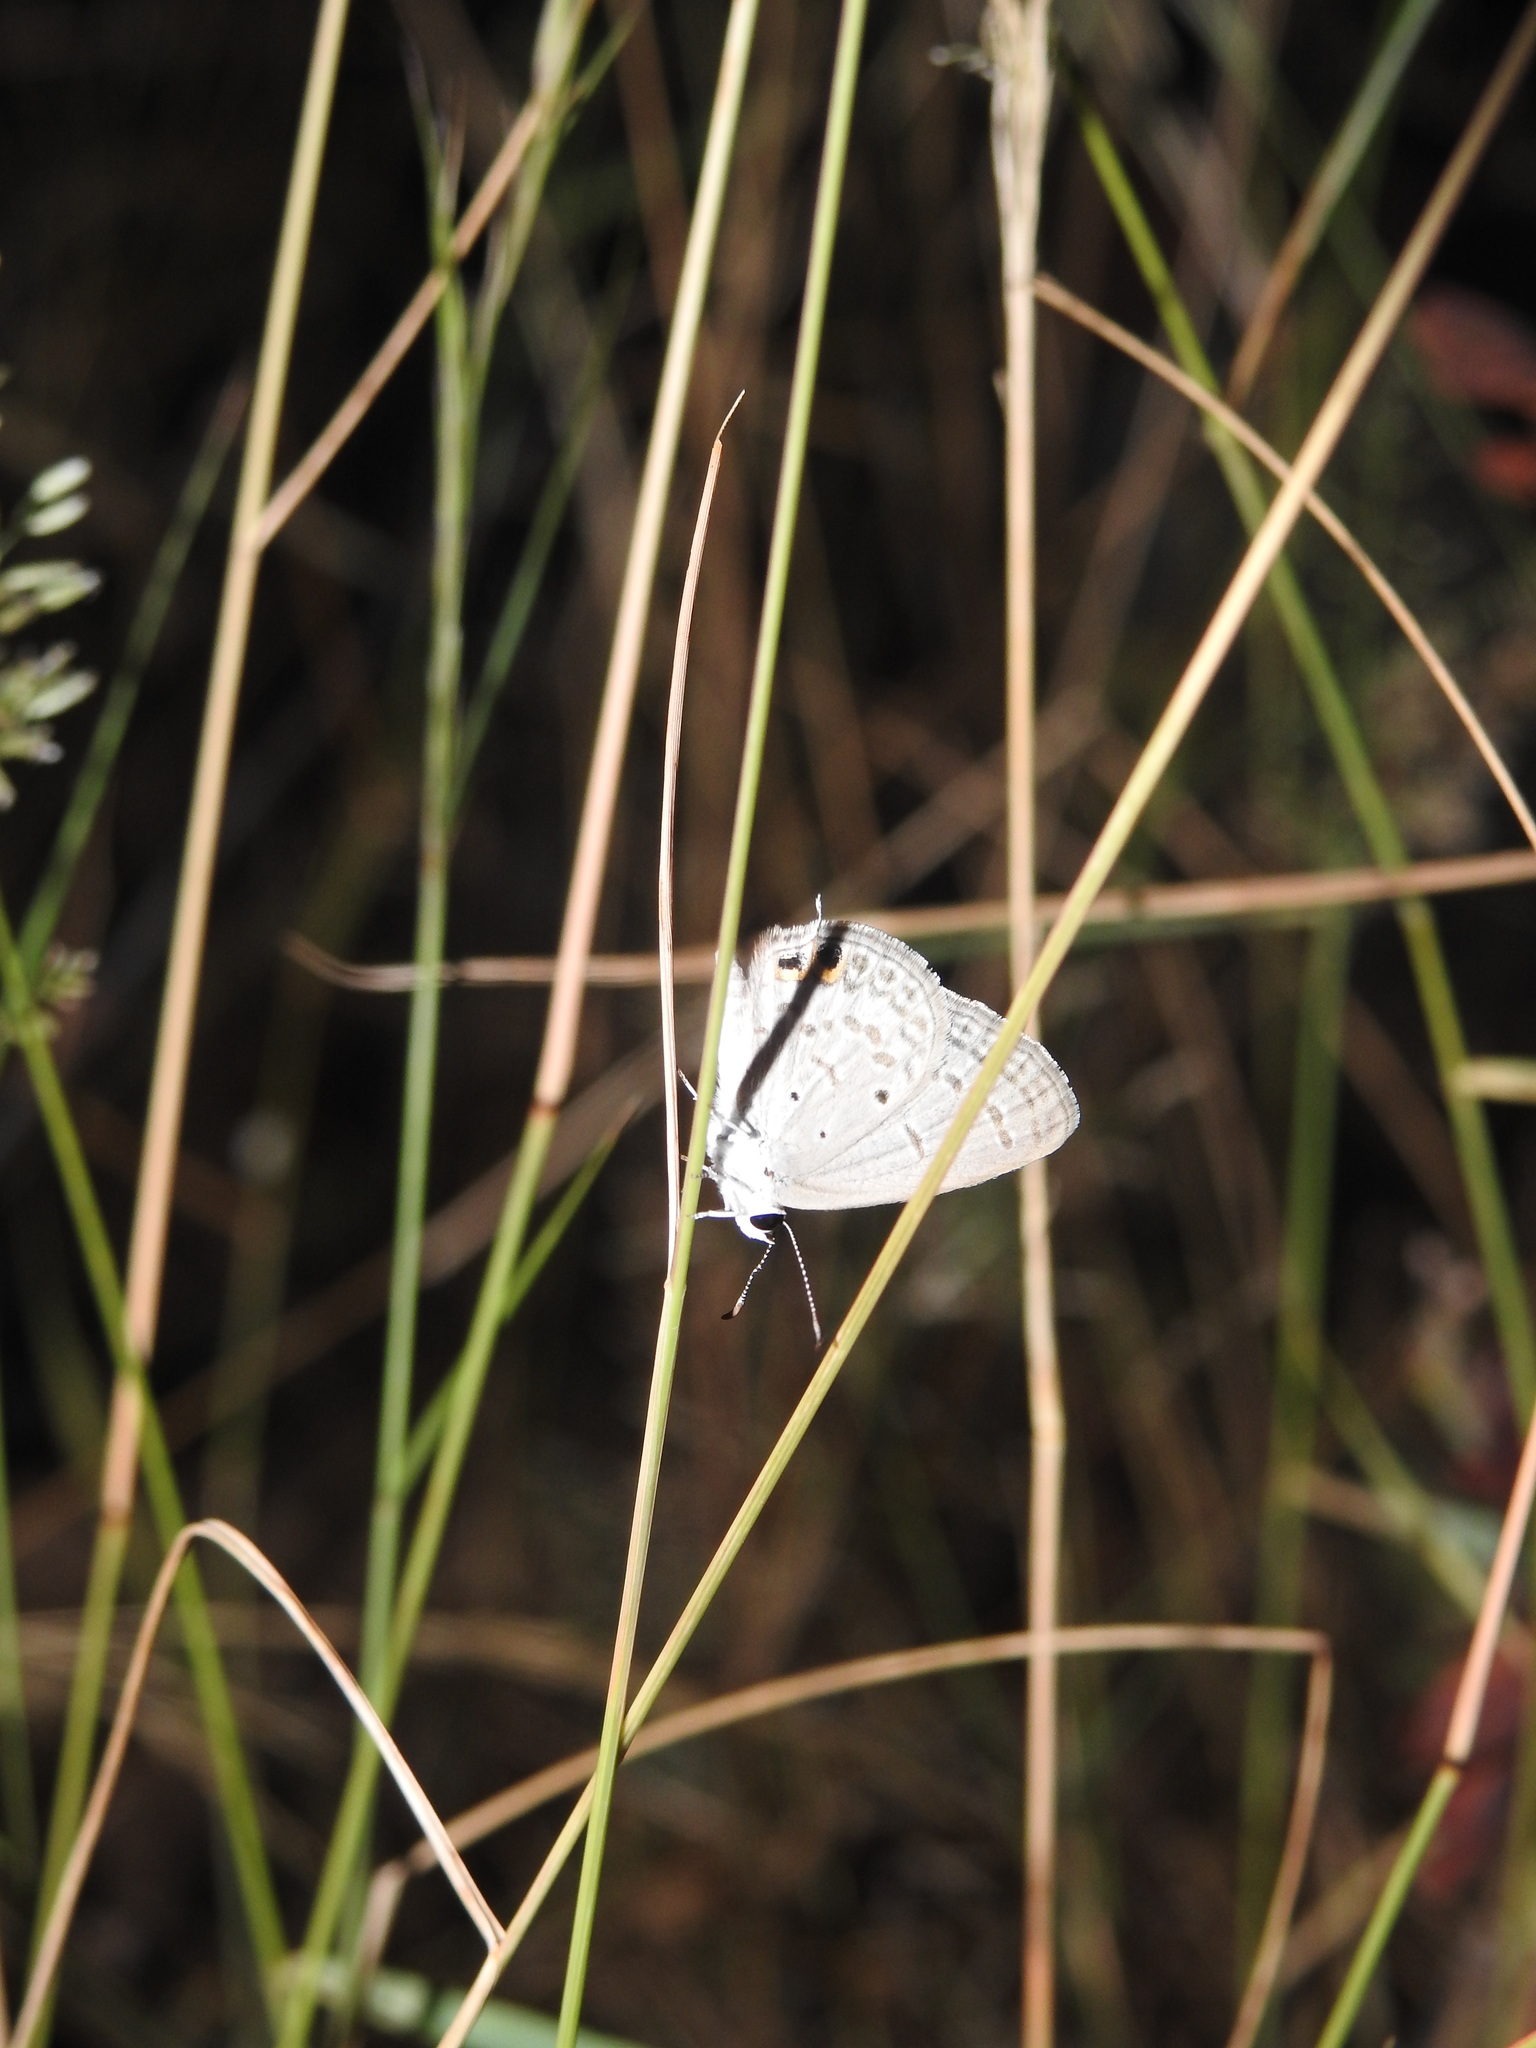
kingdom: Animalia
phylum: Arthropoda
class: Insecta
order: Lepidoptera
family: Lycaenidae
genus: Euchrysops
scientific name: Euchrysops cnejus
